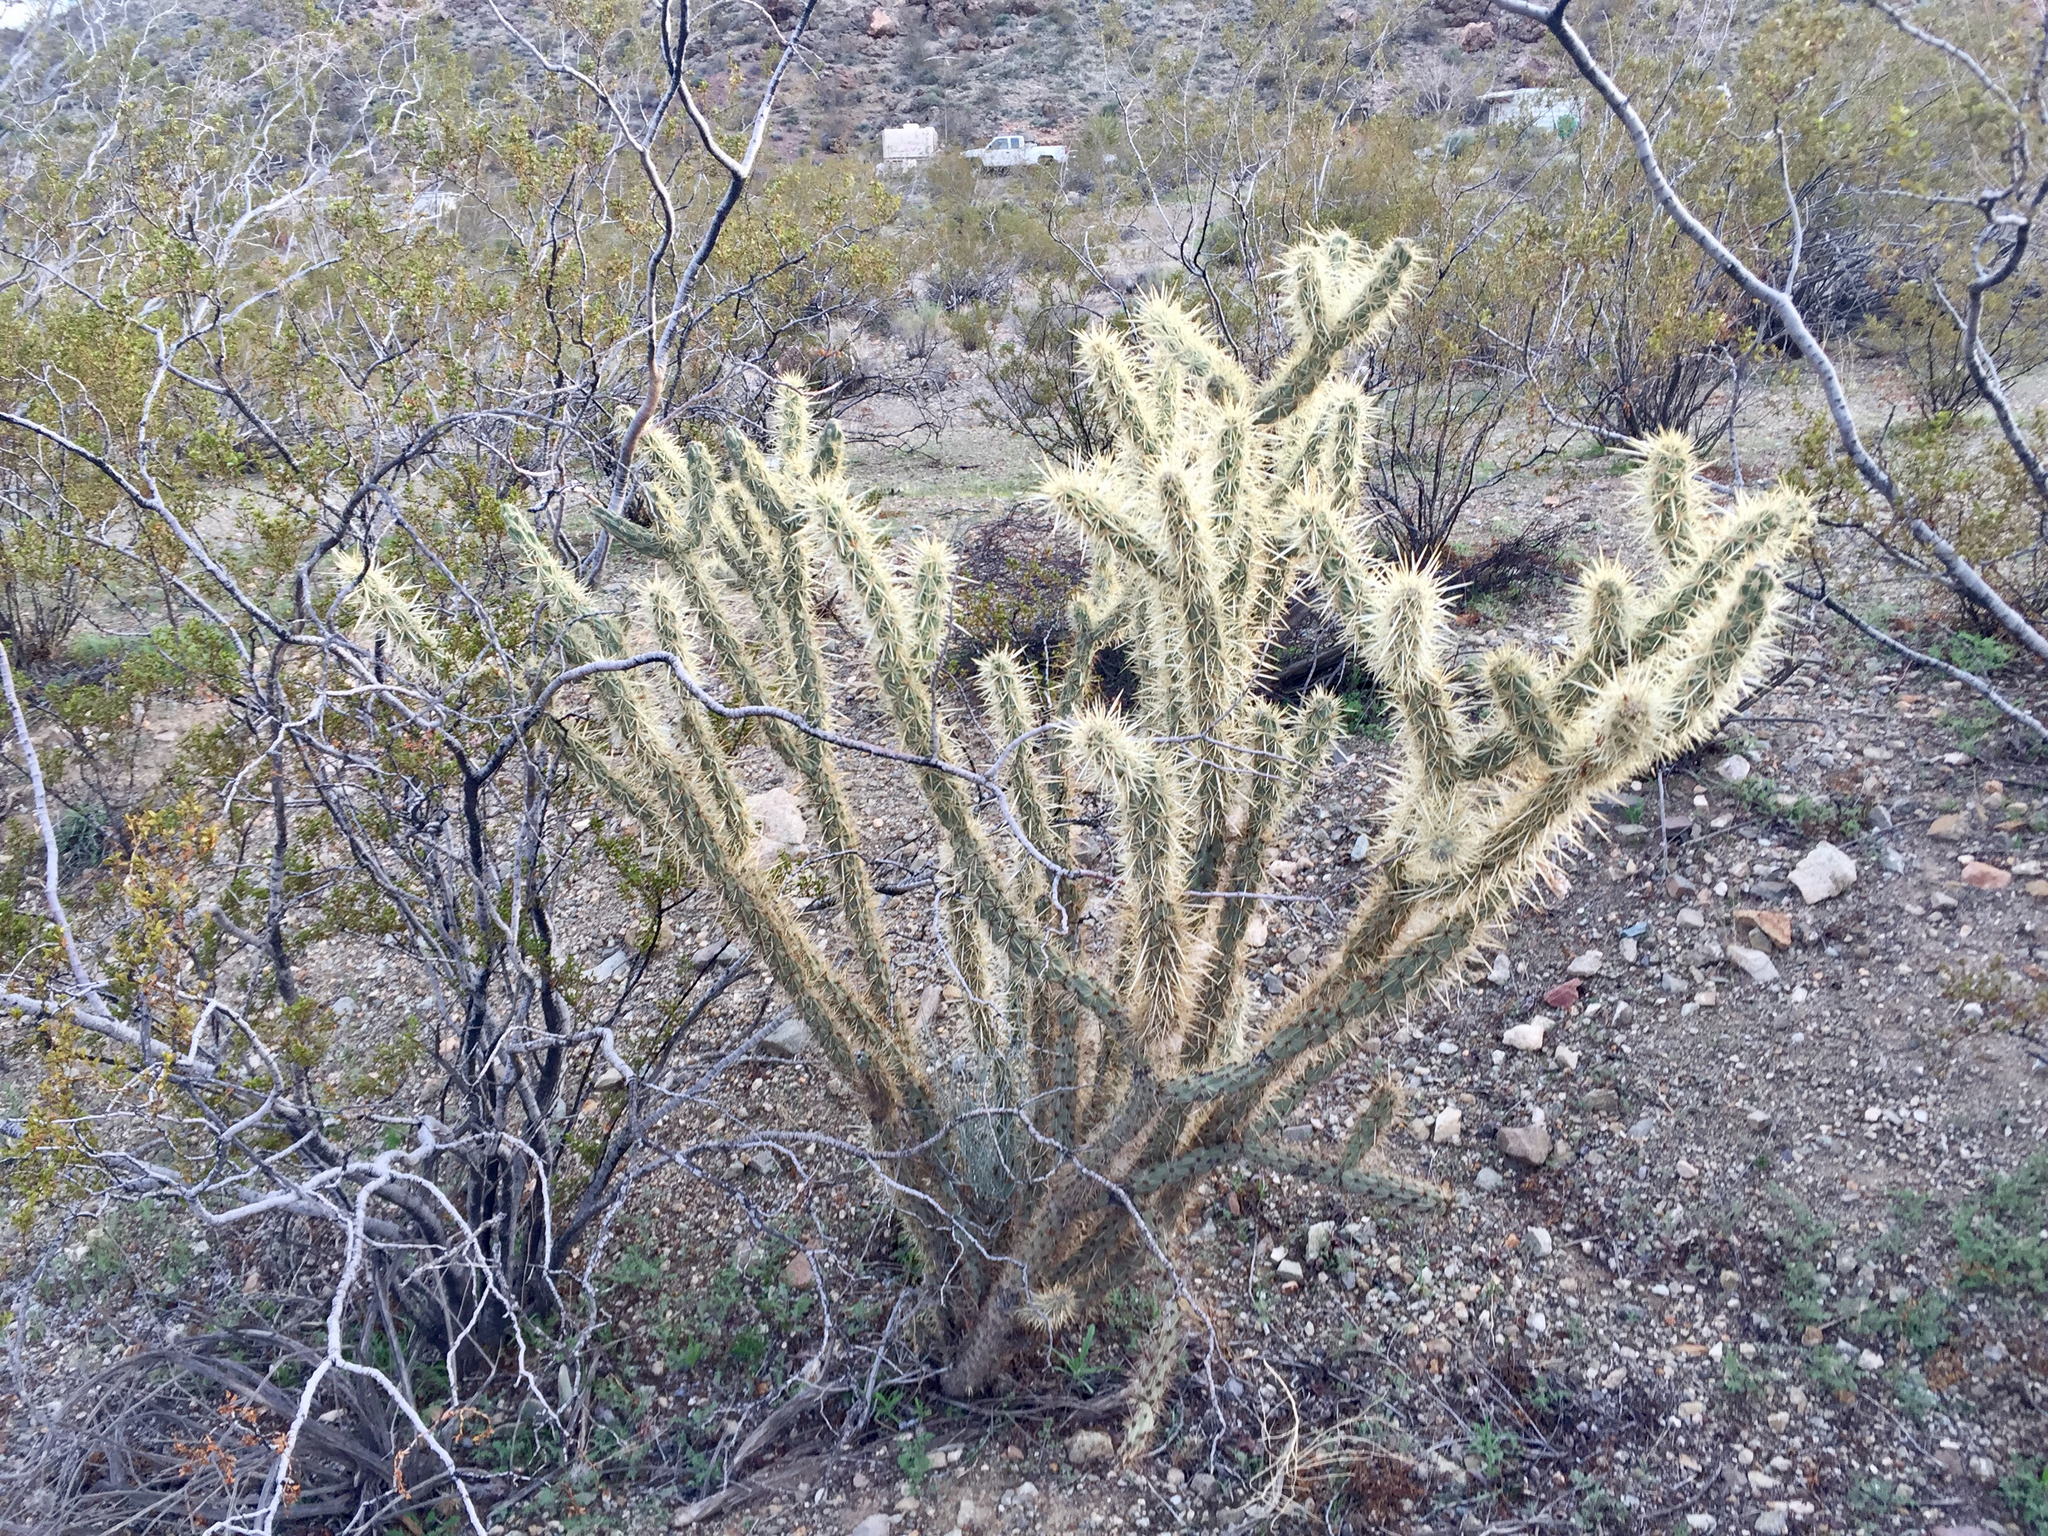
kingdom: Plantae
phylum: Tracheophyta
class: Magnoliopsida
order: Caryophyllales
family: Cactaceae
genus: Cylindropuntia
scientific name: Cylindropuntia acanthocarpa
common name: Buckhorn cholla
